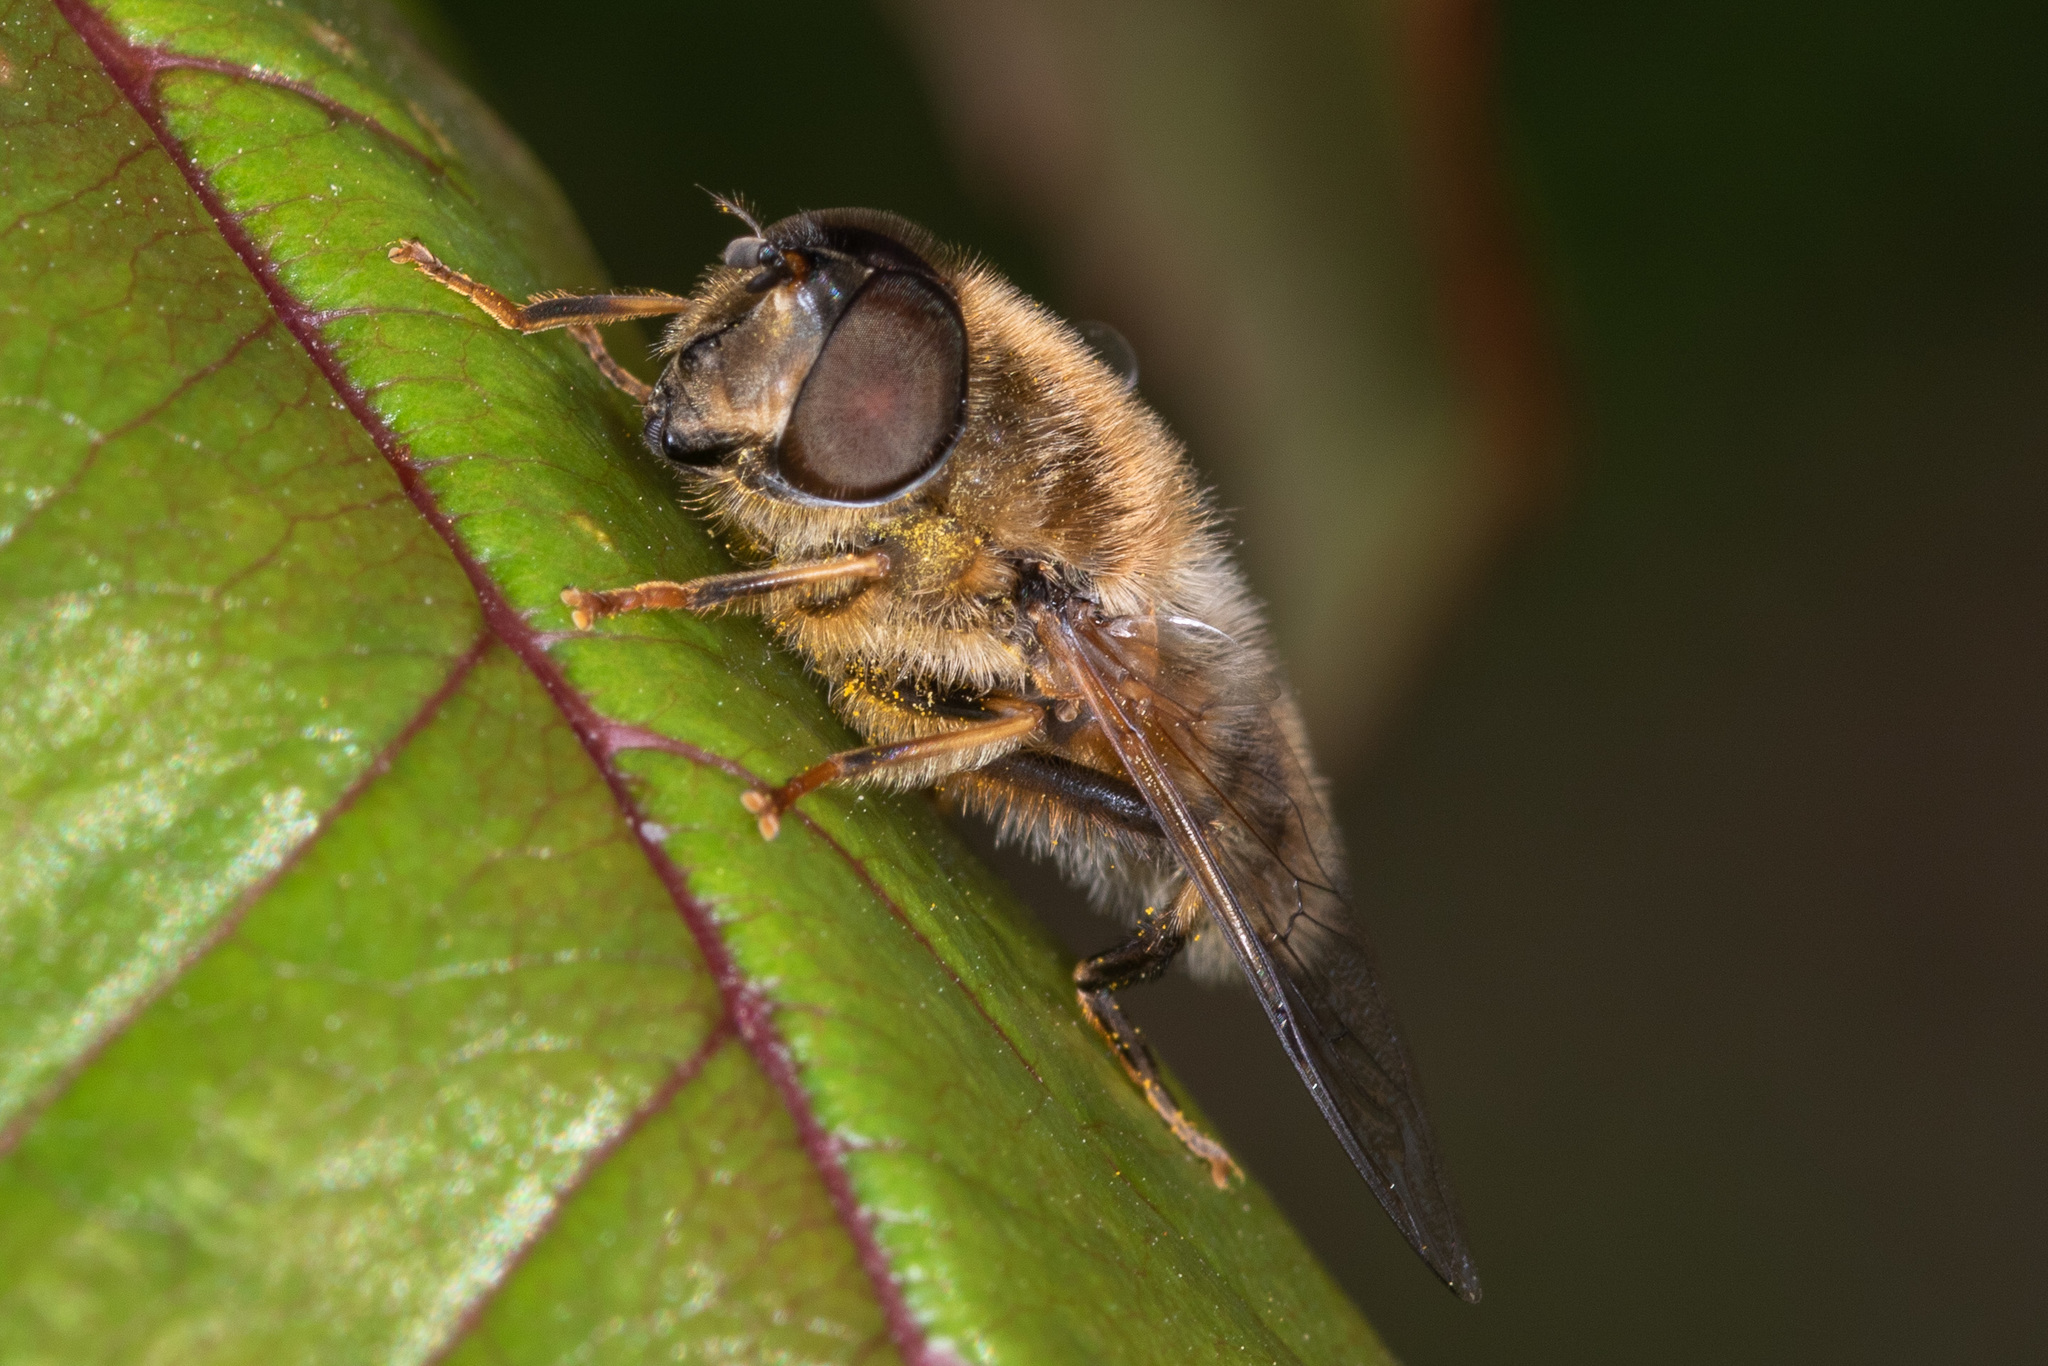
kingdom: Animalia
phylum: Arthropoda
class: Insecta
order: Diptera
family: Syrphidae
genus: Eristalis
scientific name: Eristalis pertinax
